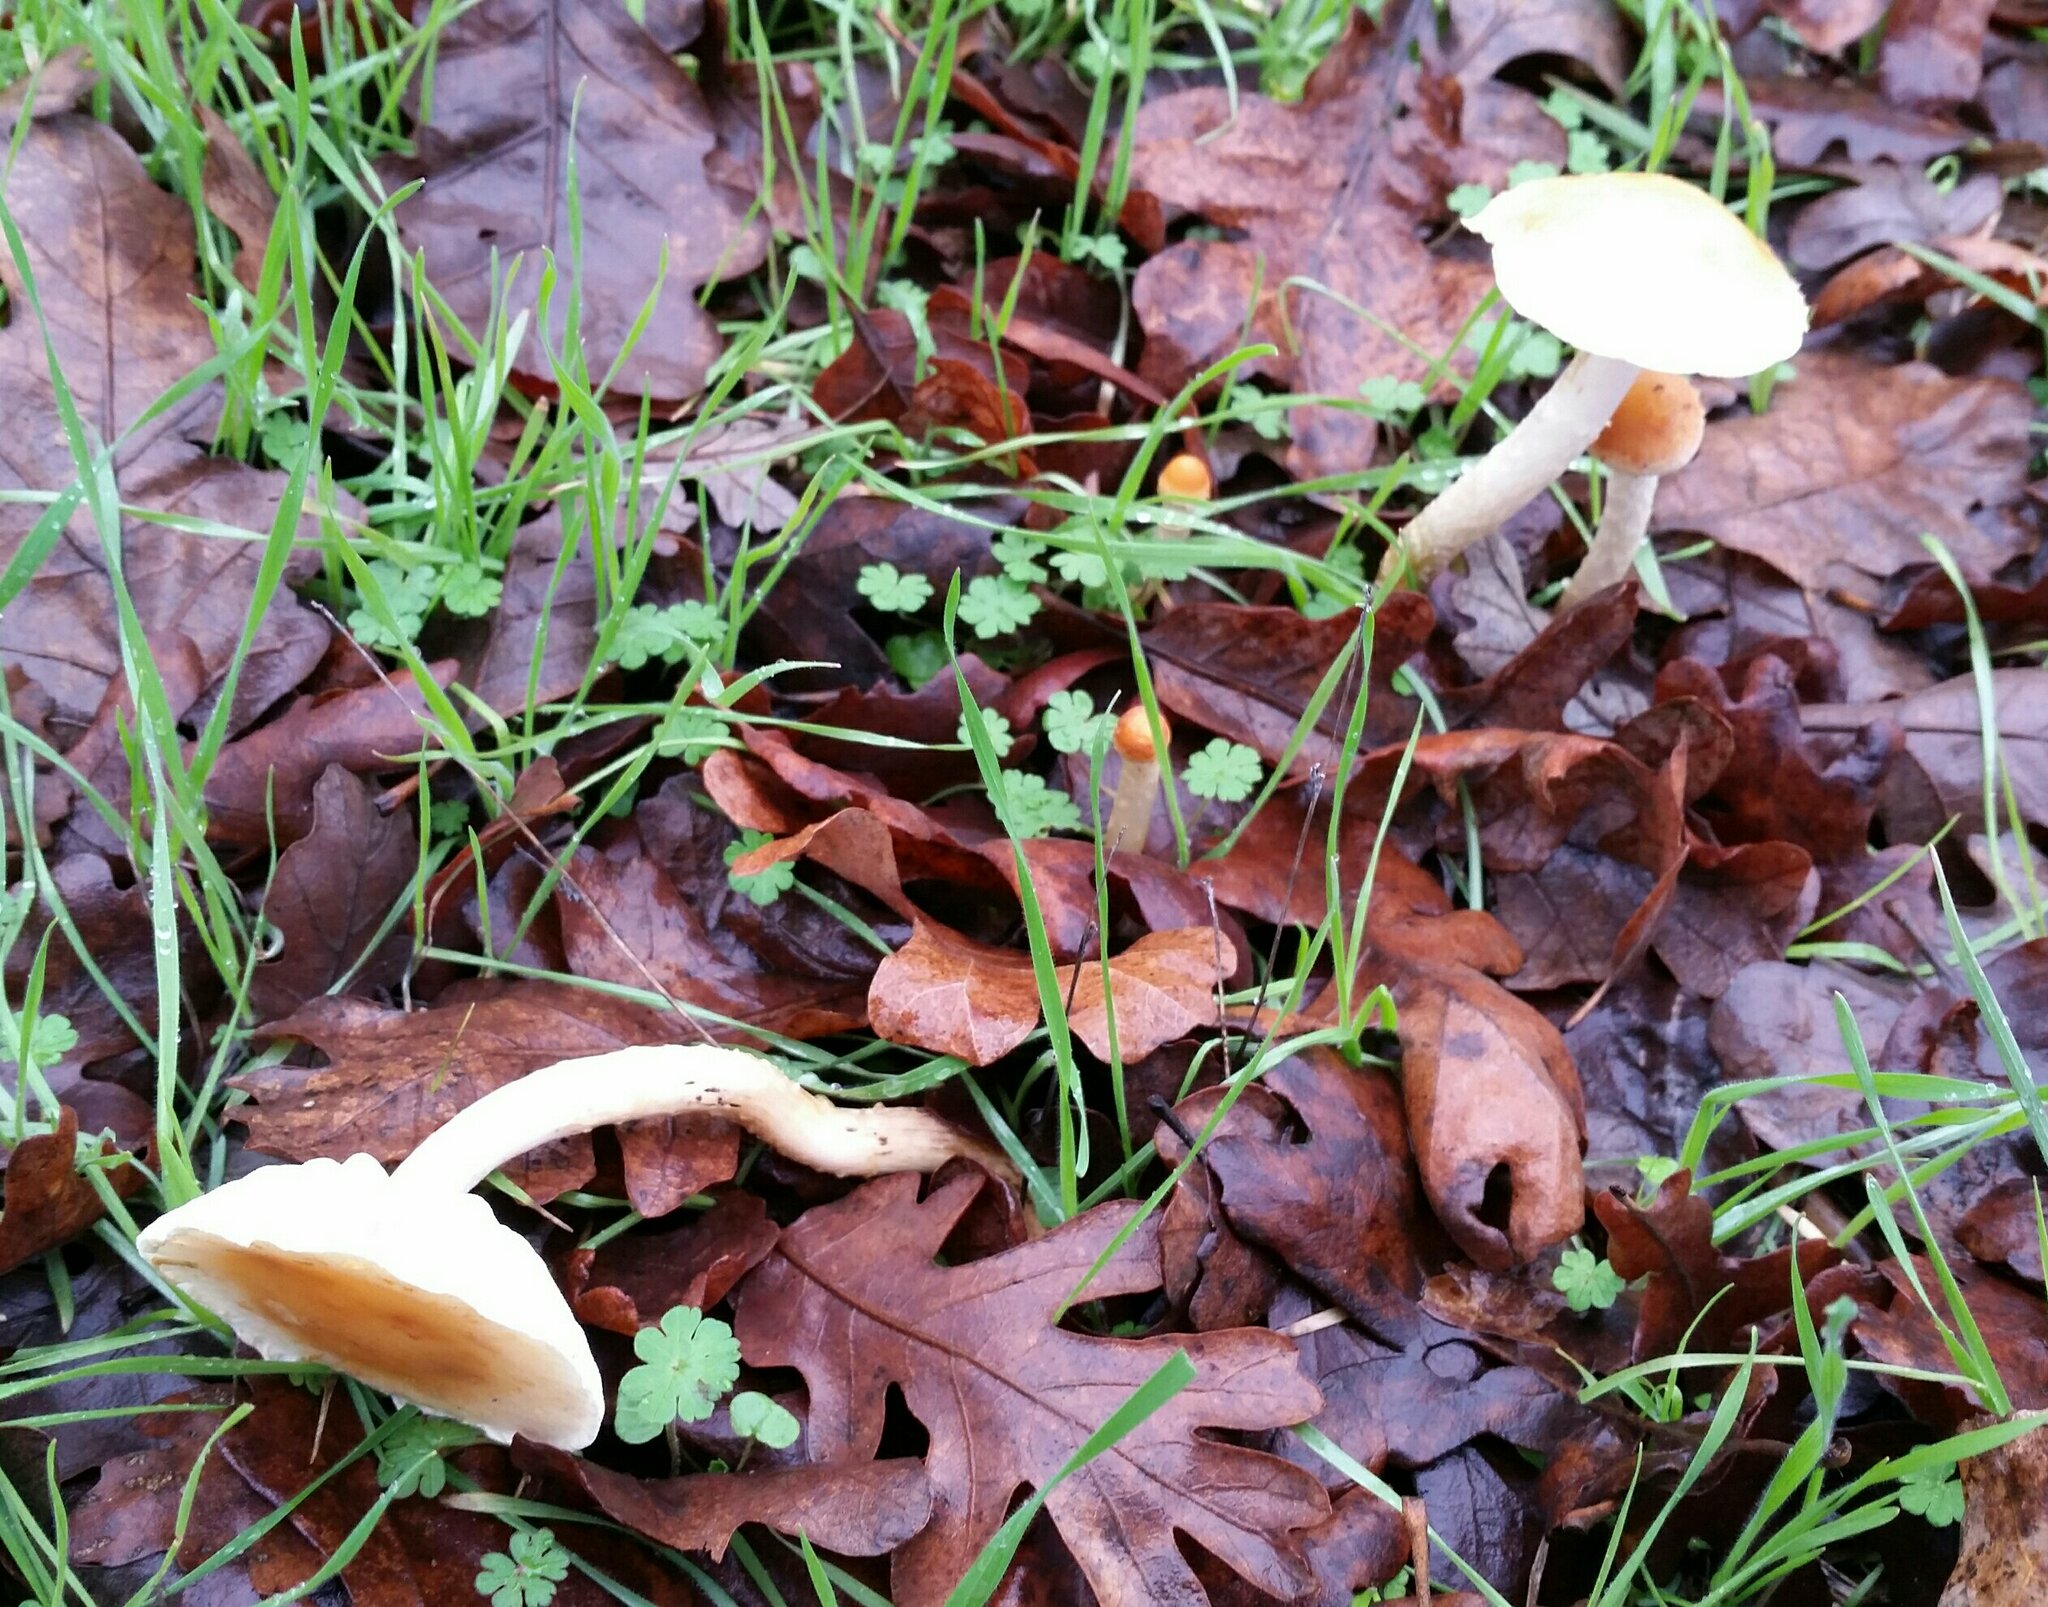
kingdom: Fungi
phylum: Basidiomycota
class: Agaricomycetes
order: Agaricales
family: Strophariaceae
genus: Leratiomyces
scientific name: Leratiomyces percevalii
